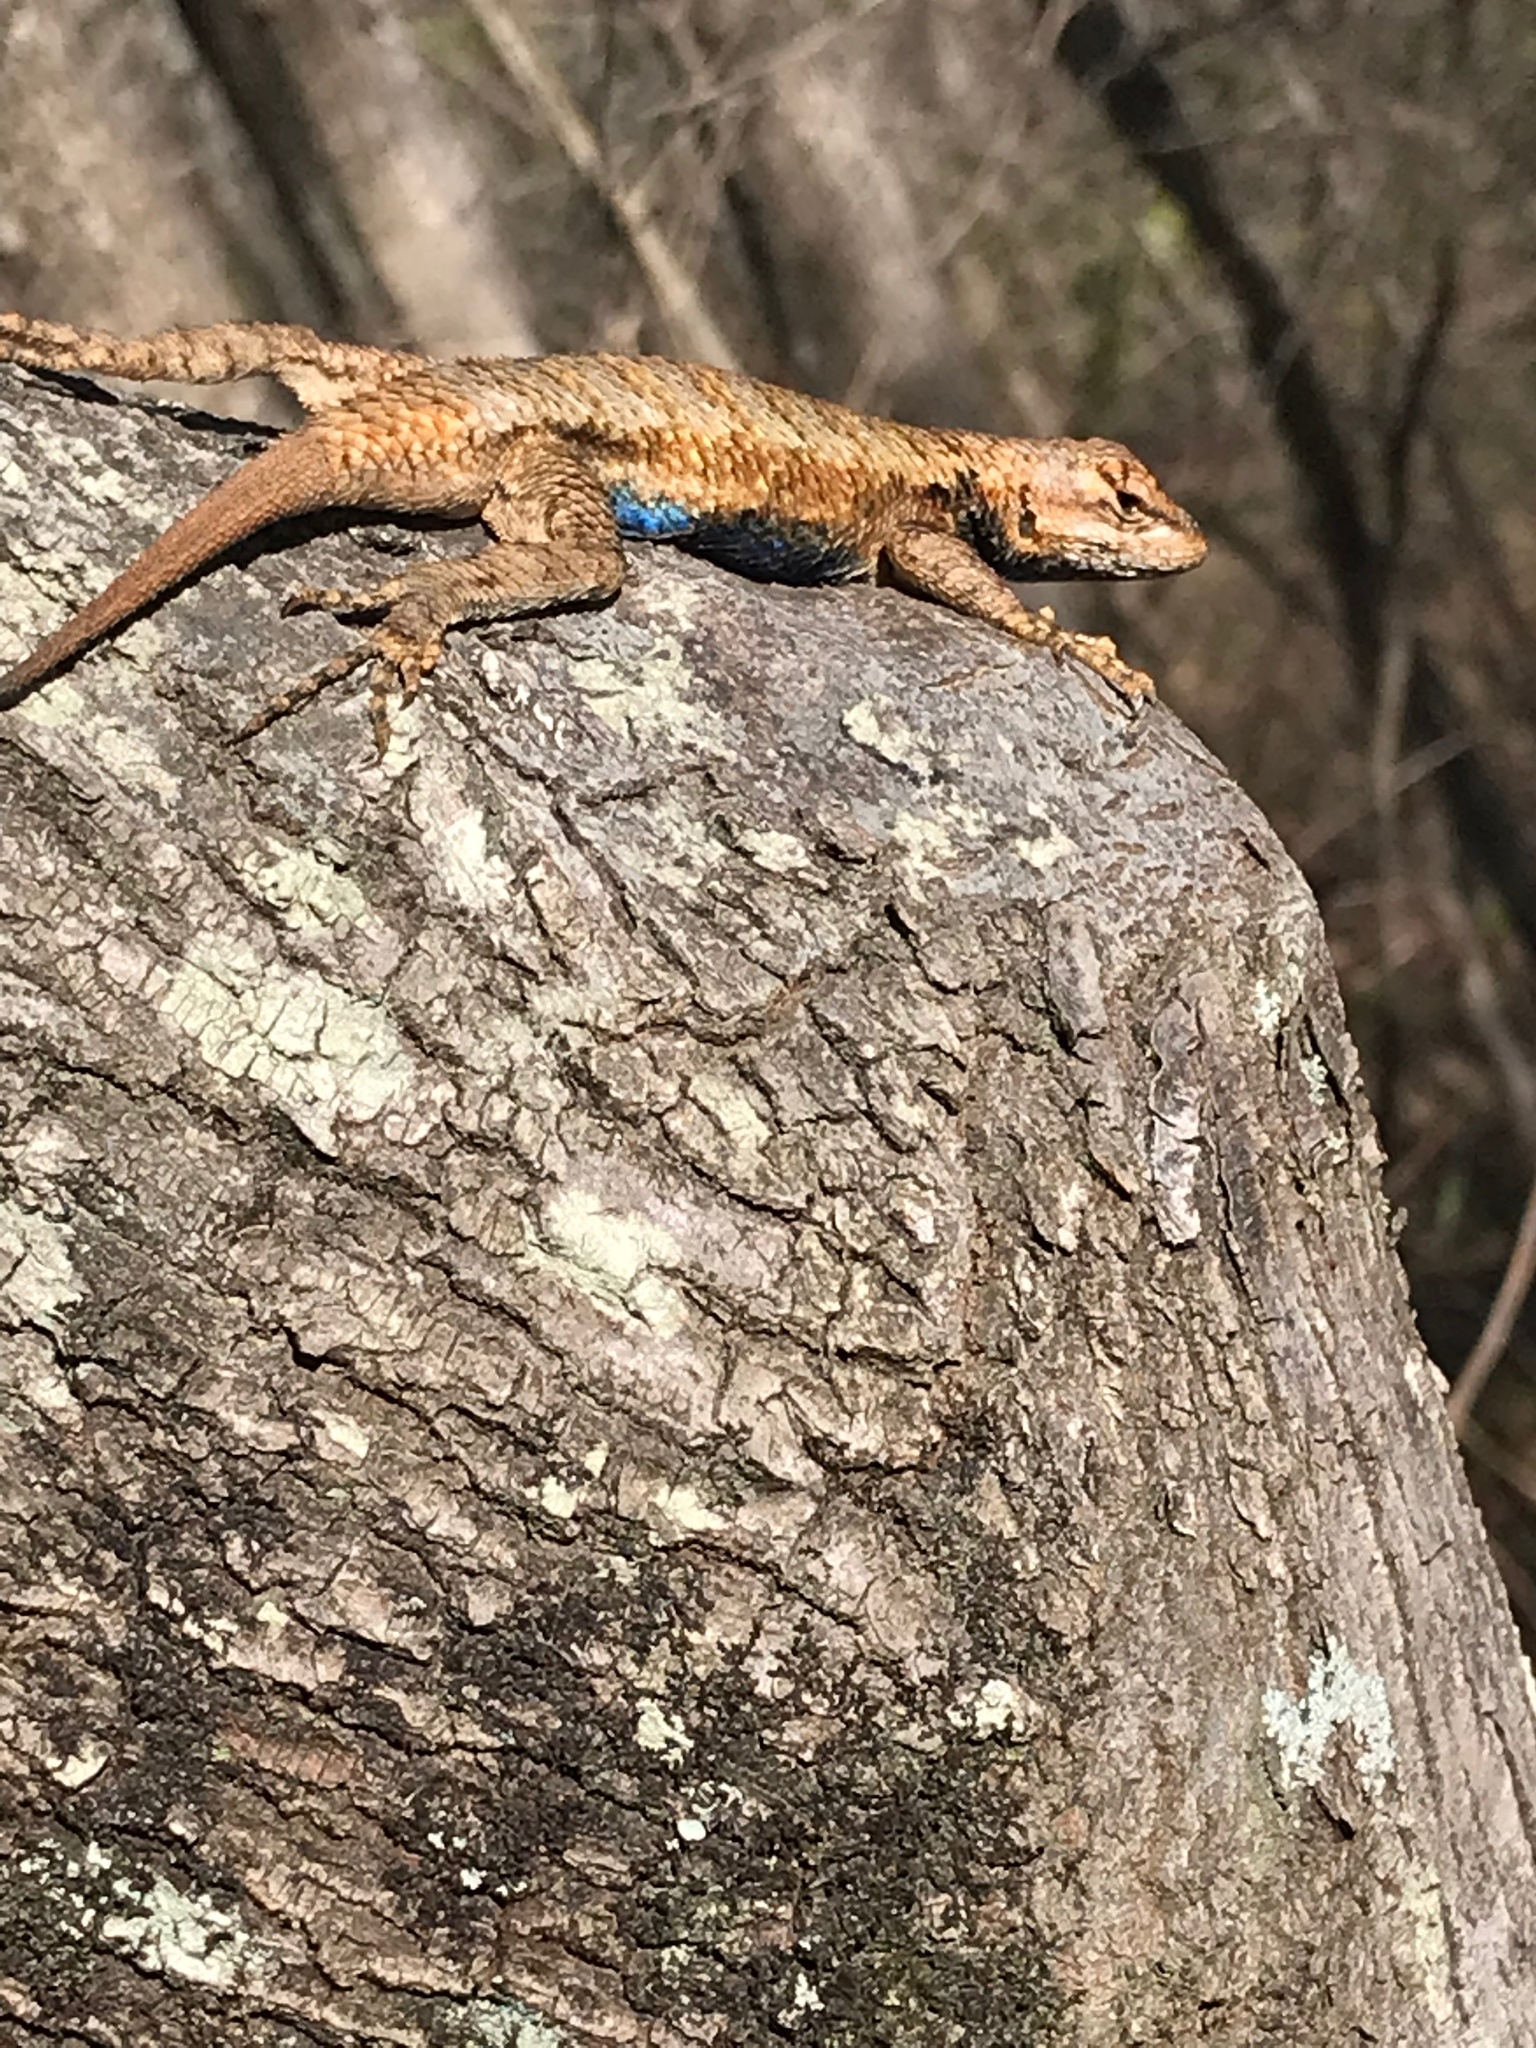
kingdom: Animalia
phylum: Chordata
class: Squamata
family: Phrynosomatidae
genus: Sceloporus
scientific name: Sceloporus undulatus
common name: Eastern fence lizard
